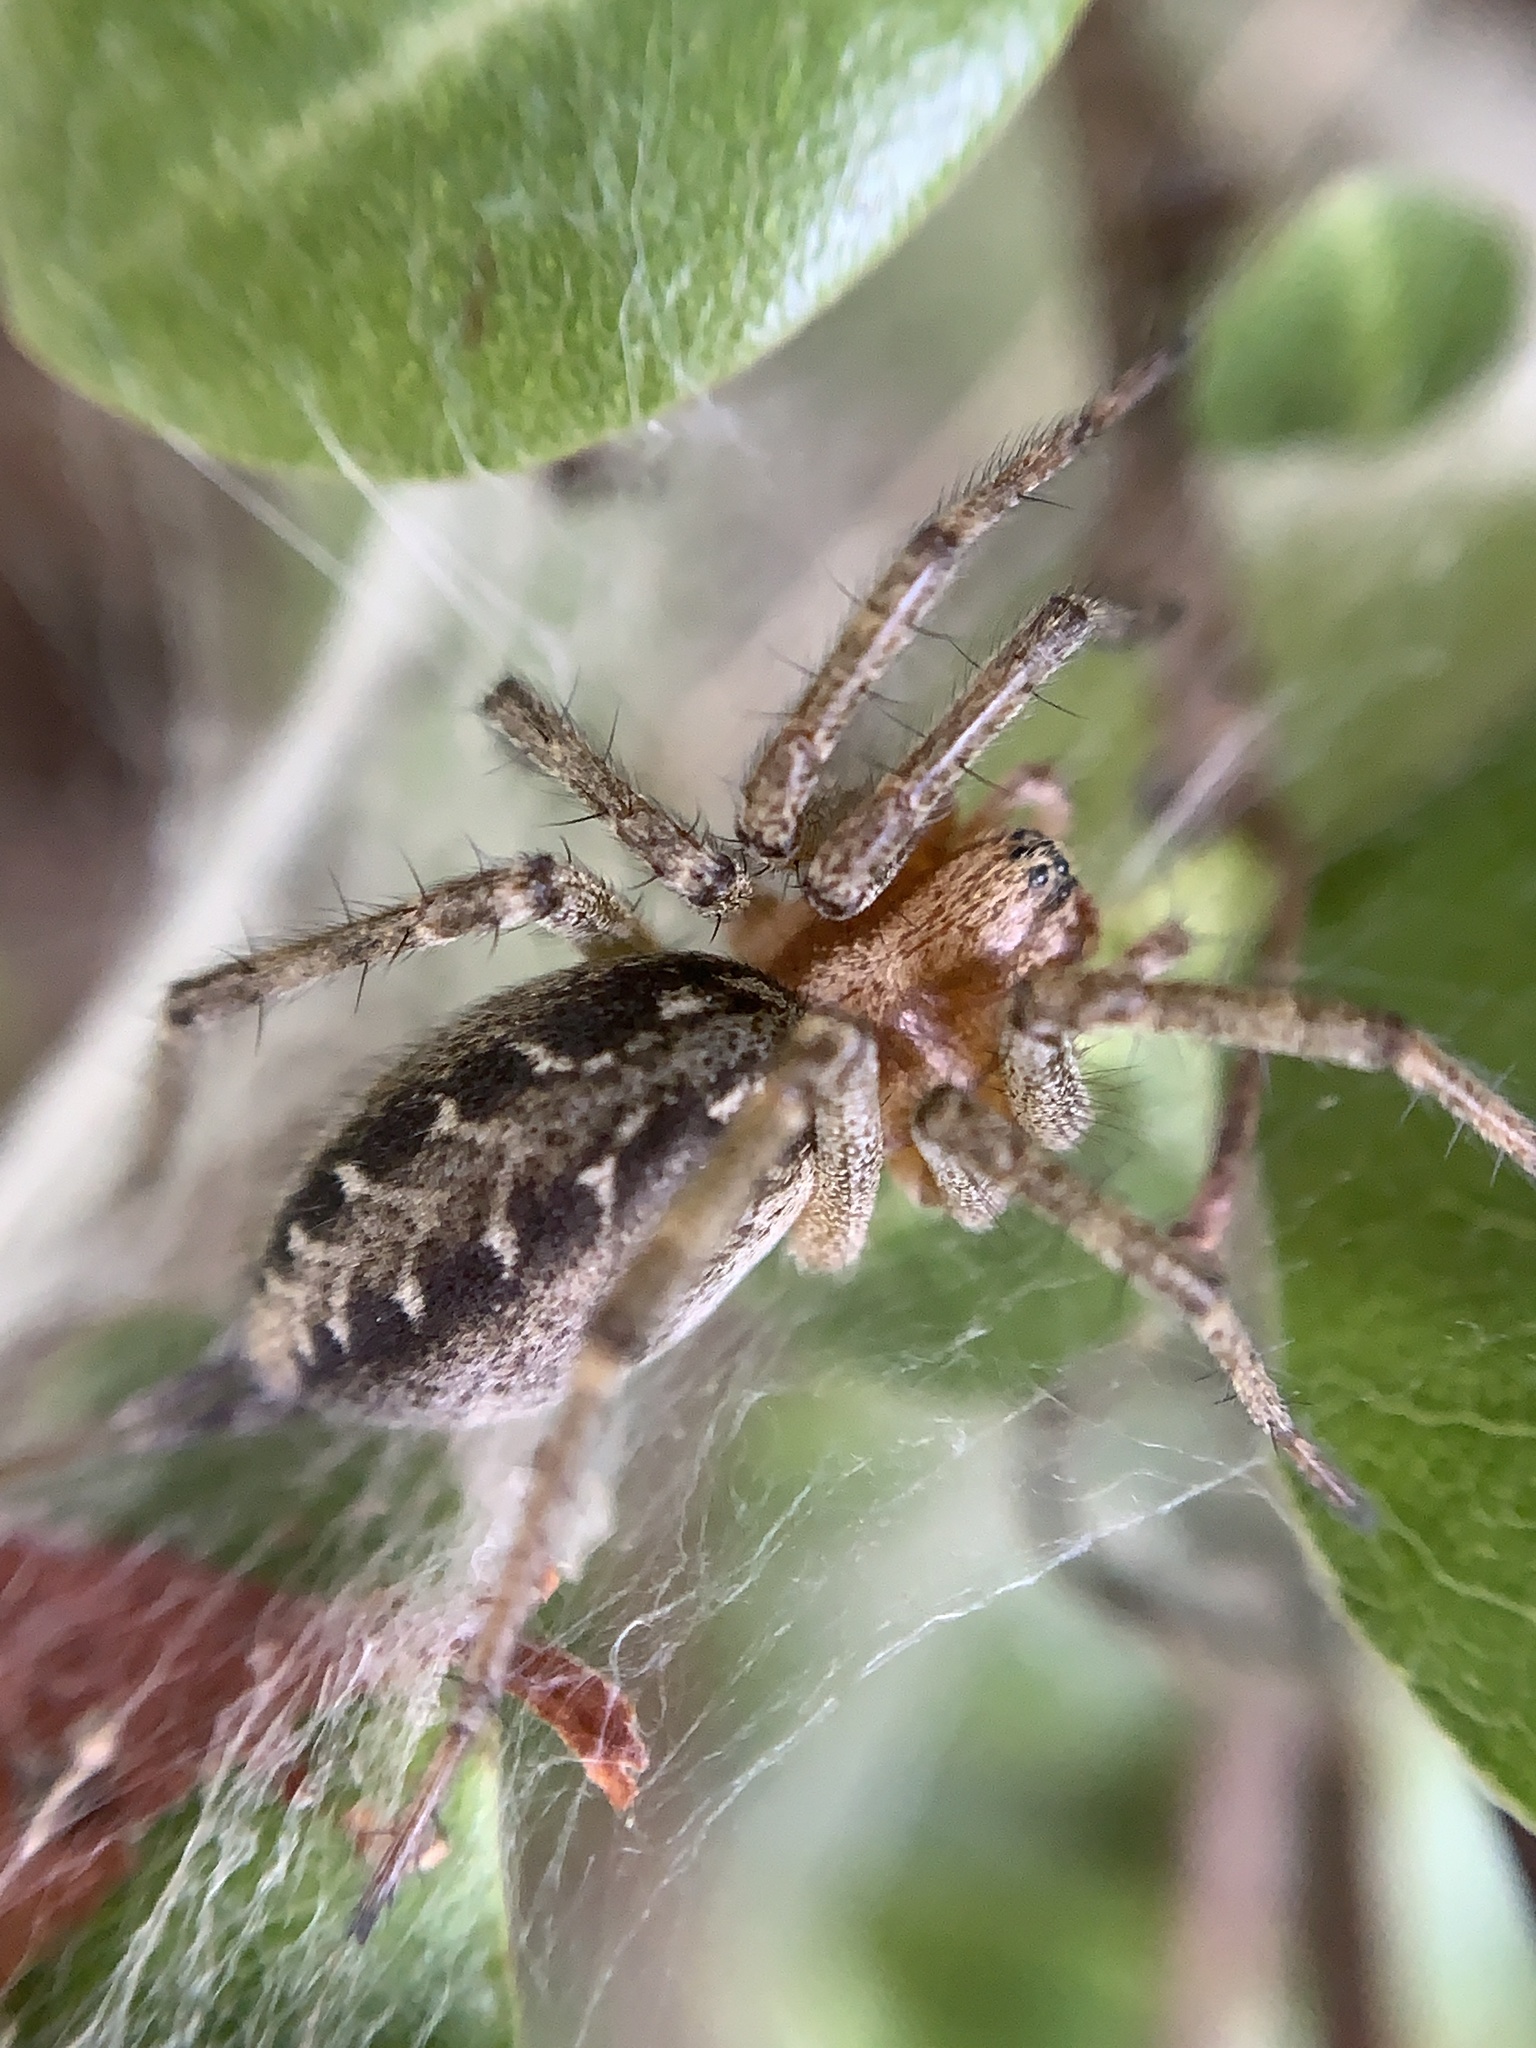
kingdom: Animalia
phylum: Arthropoda
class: Arachnida
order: Araneae
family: Agelenidae
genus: Agelena
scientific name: Agelena labyrinthica
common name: Labyrinth spider
